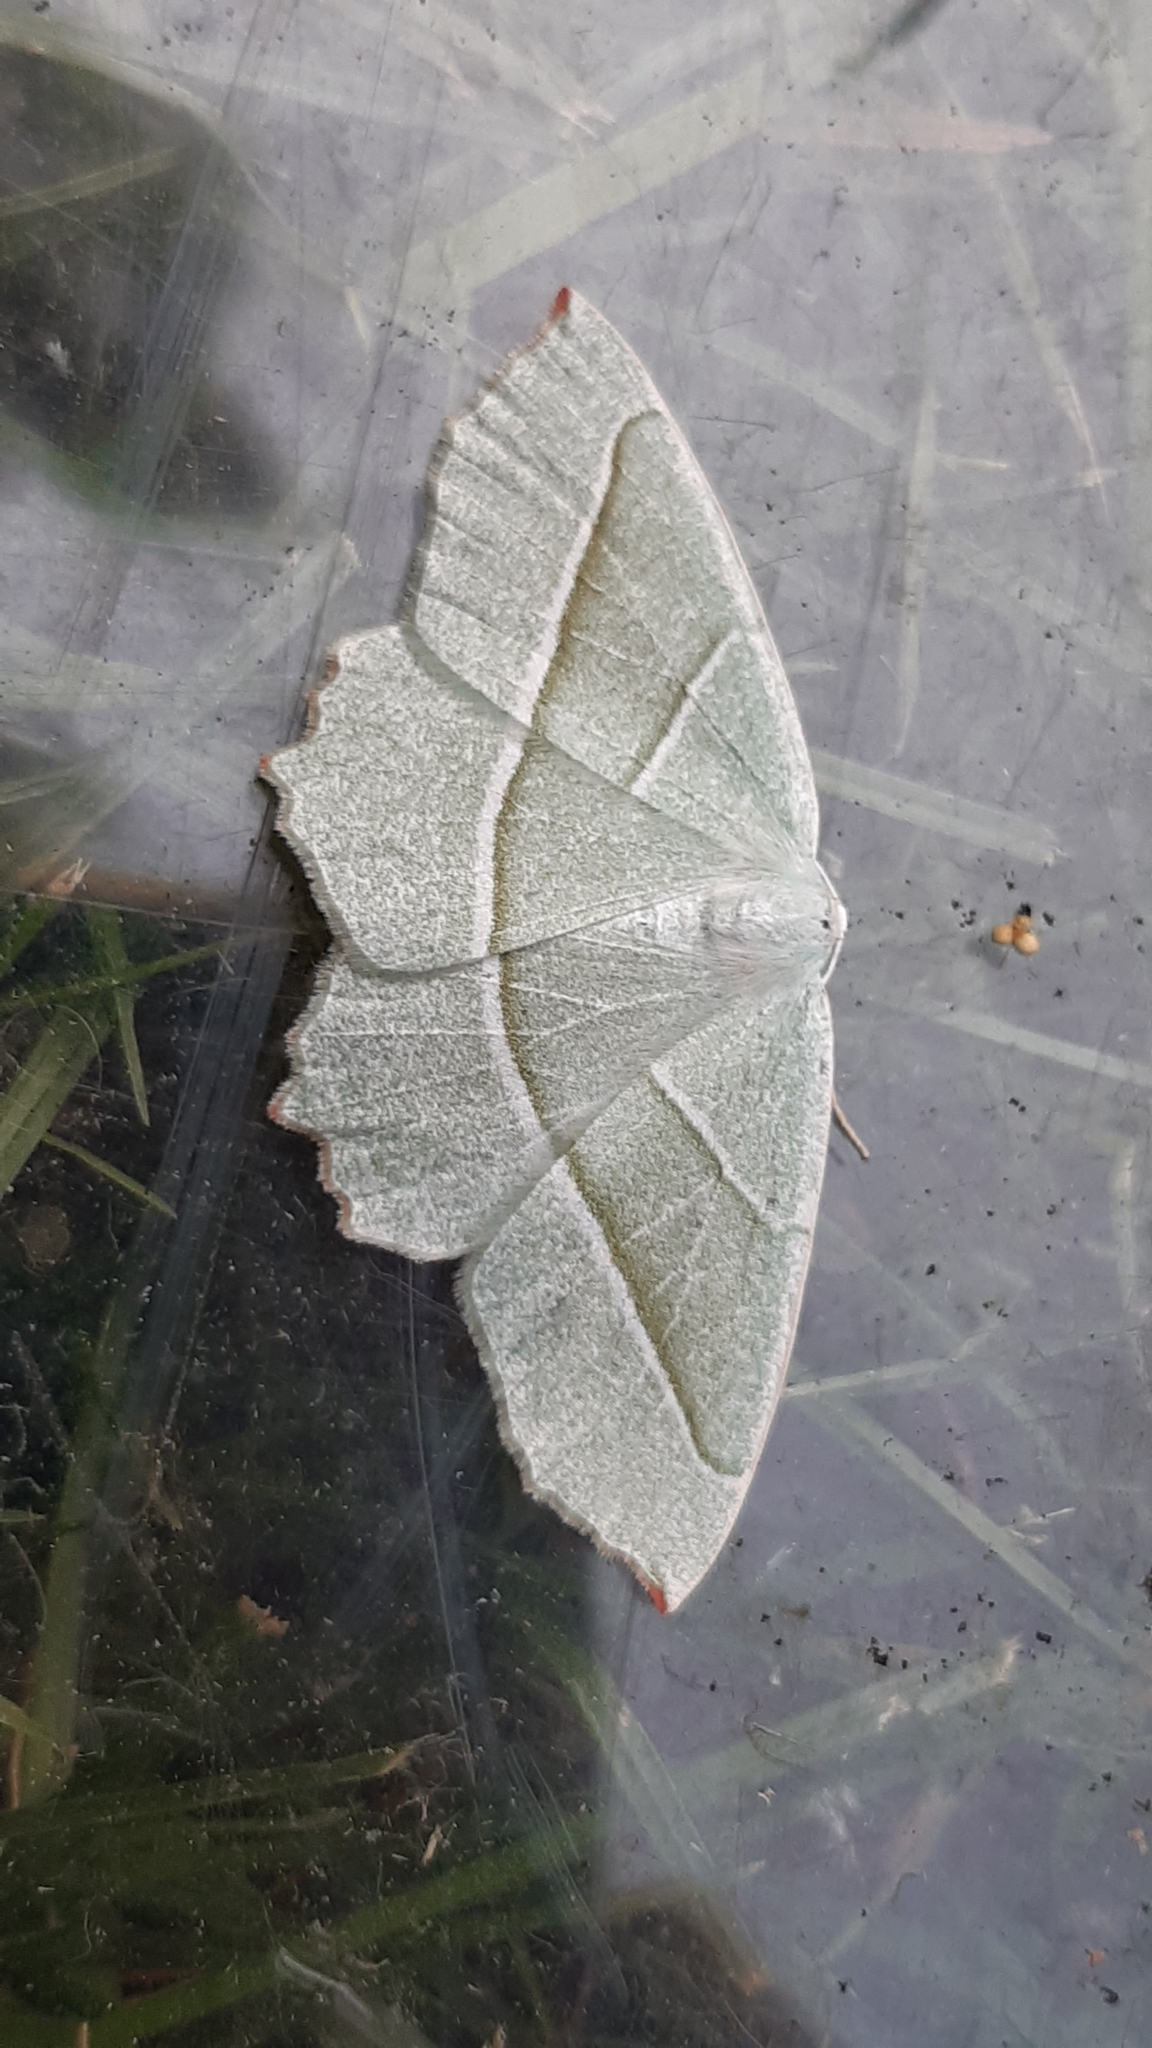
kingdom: Animalia
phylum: Arthropoda
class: Insecta
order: Lepidoptera
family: Geometridae
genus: Campaea
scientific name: Campaea margaritaria
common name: Light emerald
